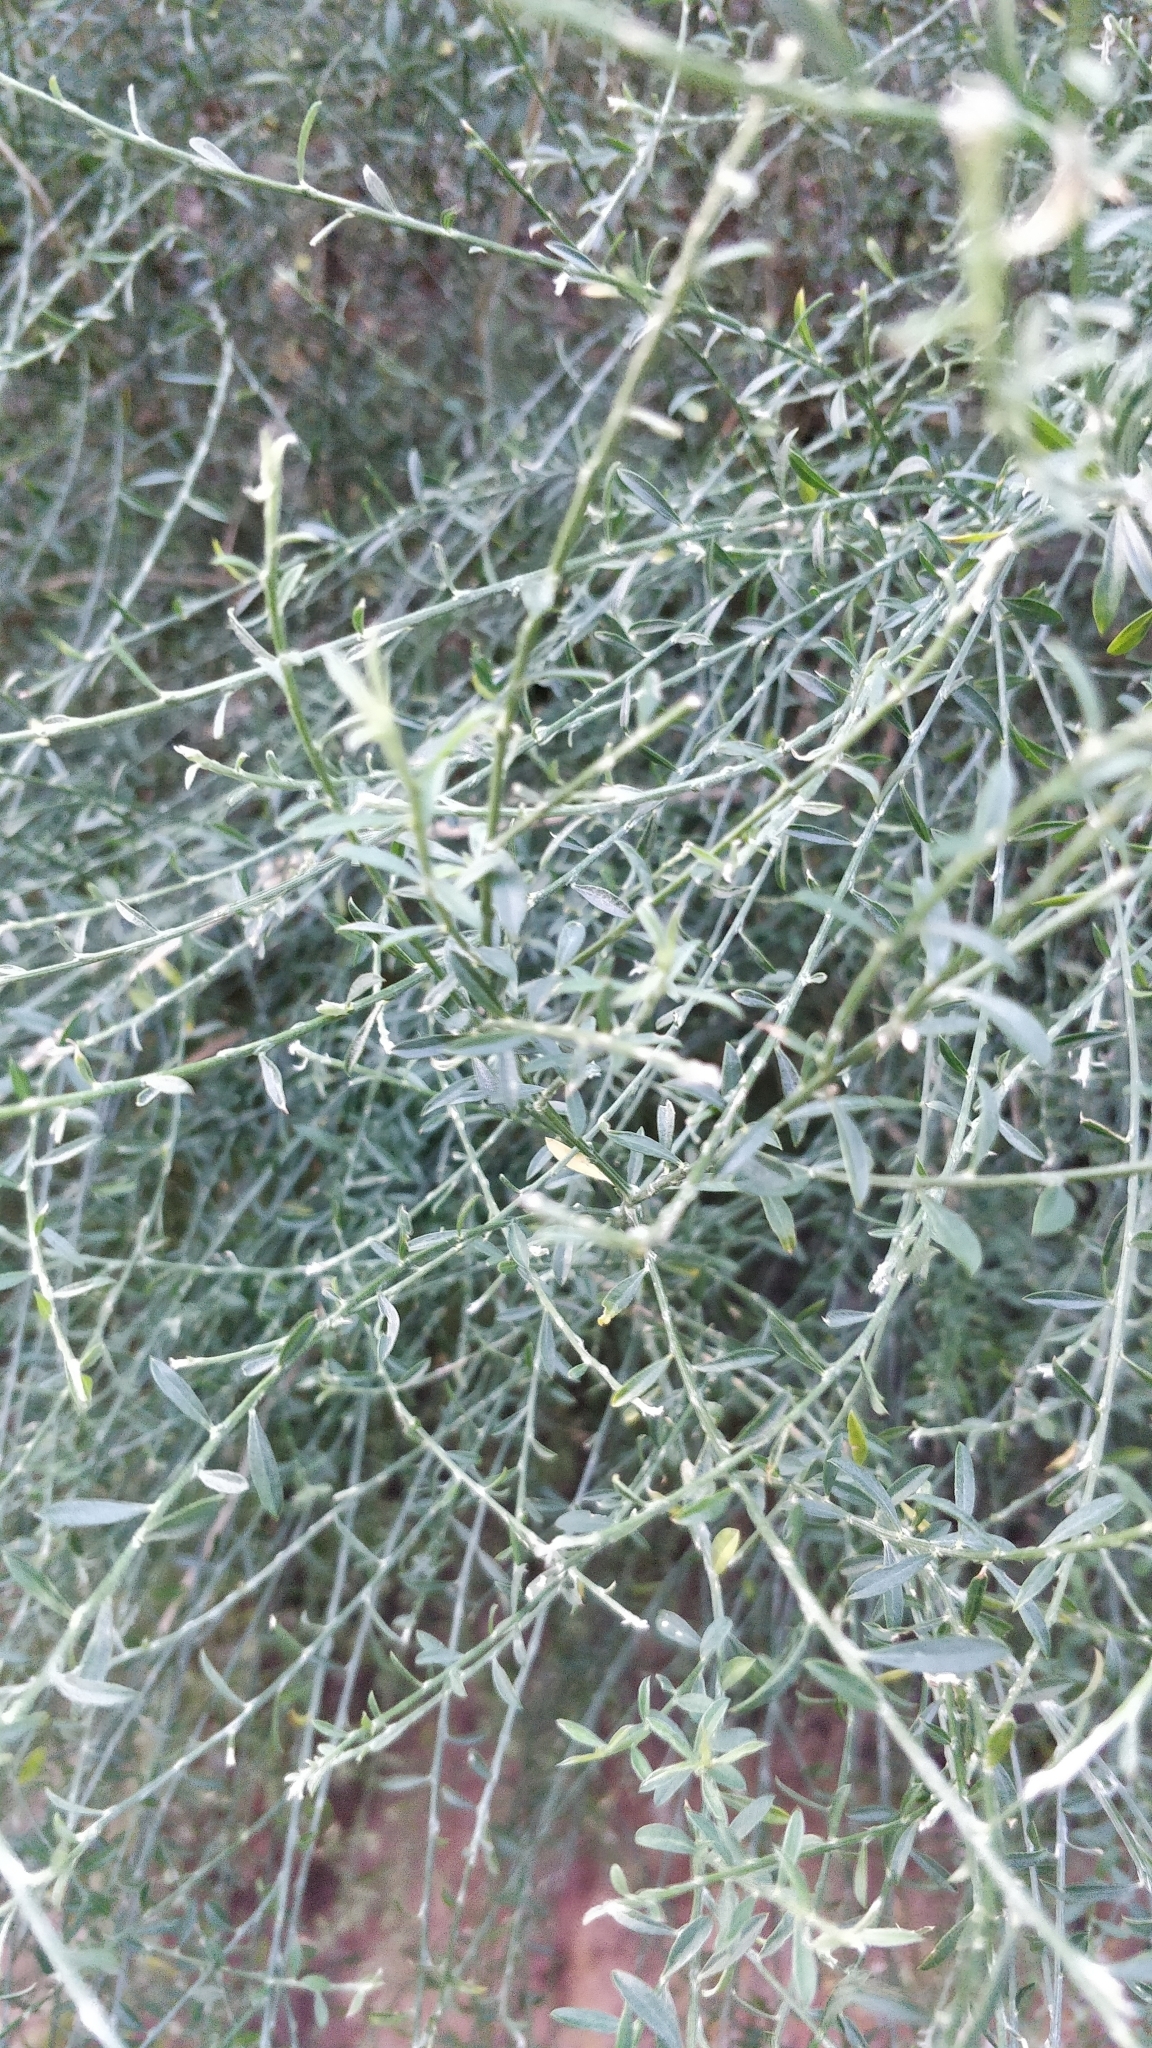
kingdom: Plantae
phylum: Tracheophyta
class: Magnoliopsida
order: Fabales
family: Fabaceae
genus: Genista
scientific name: Genista tenera
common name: Madeira broom
